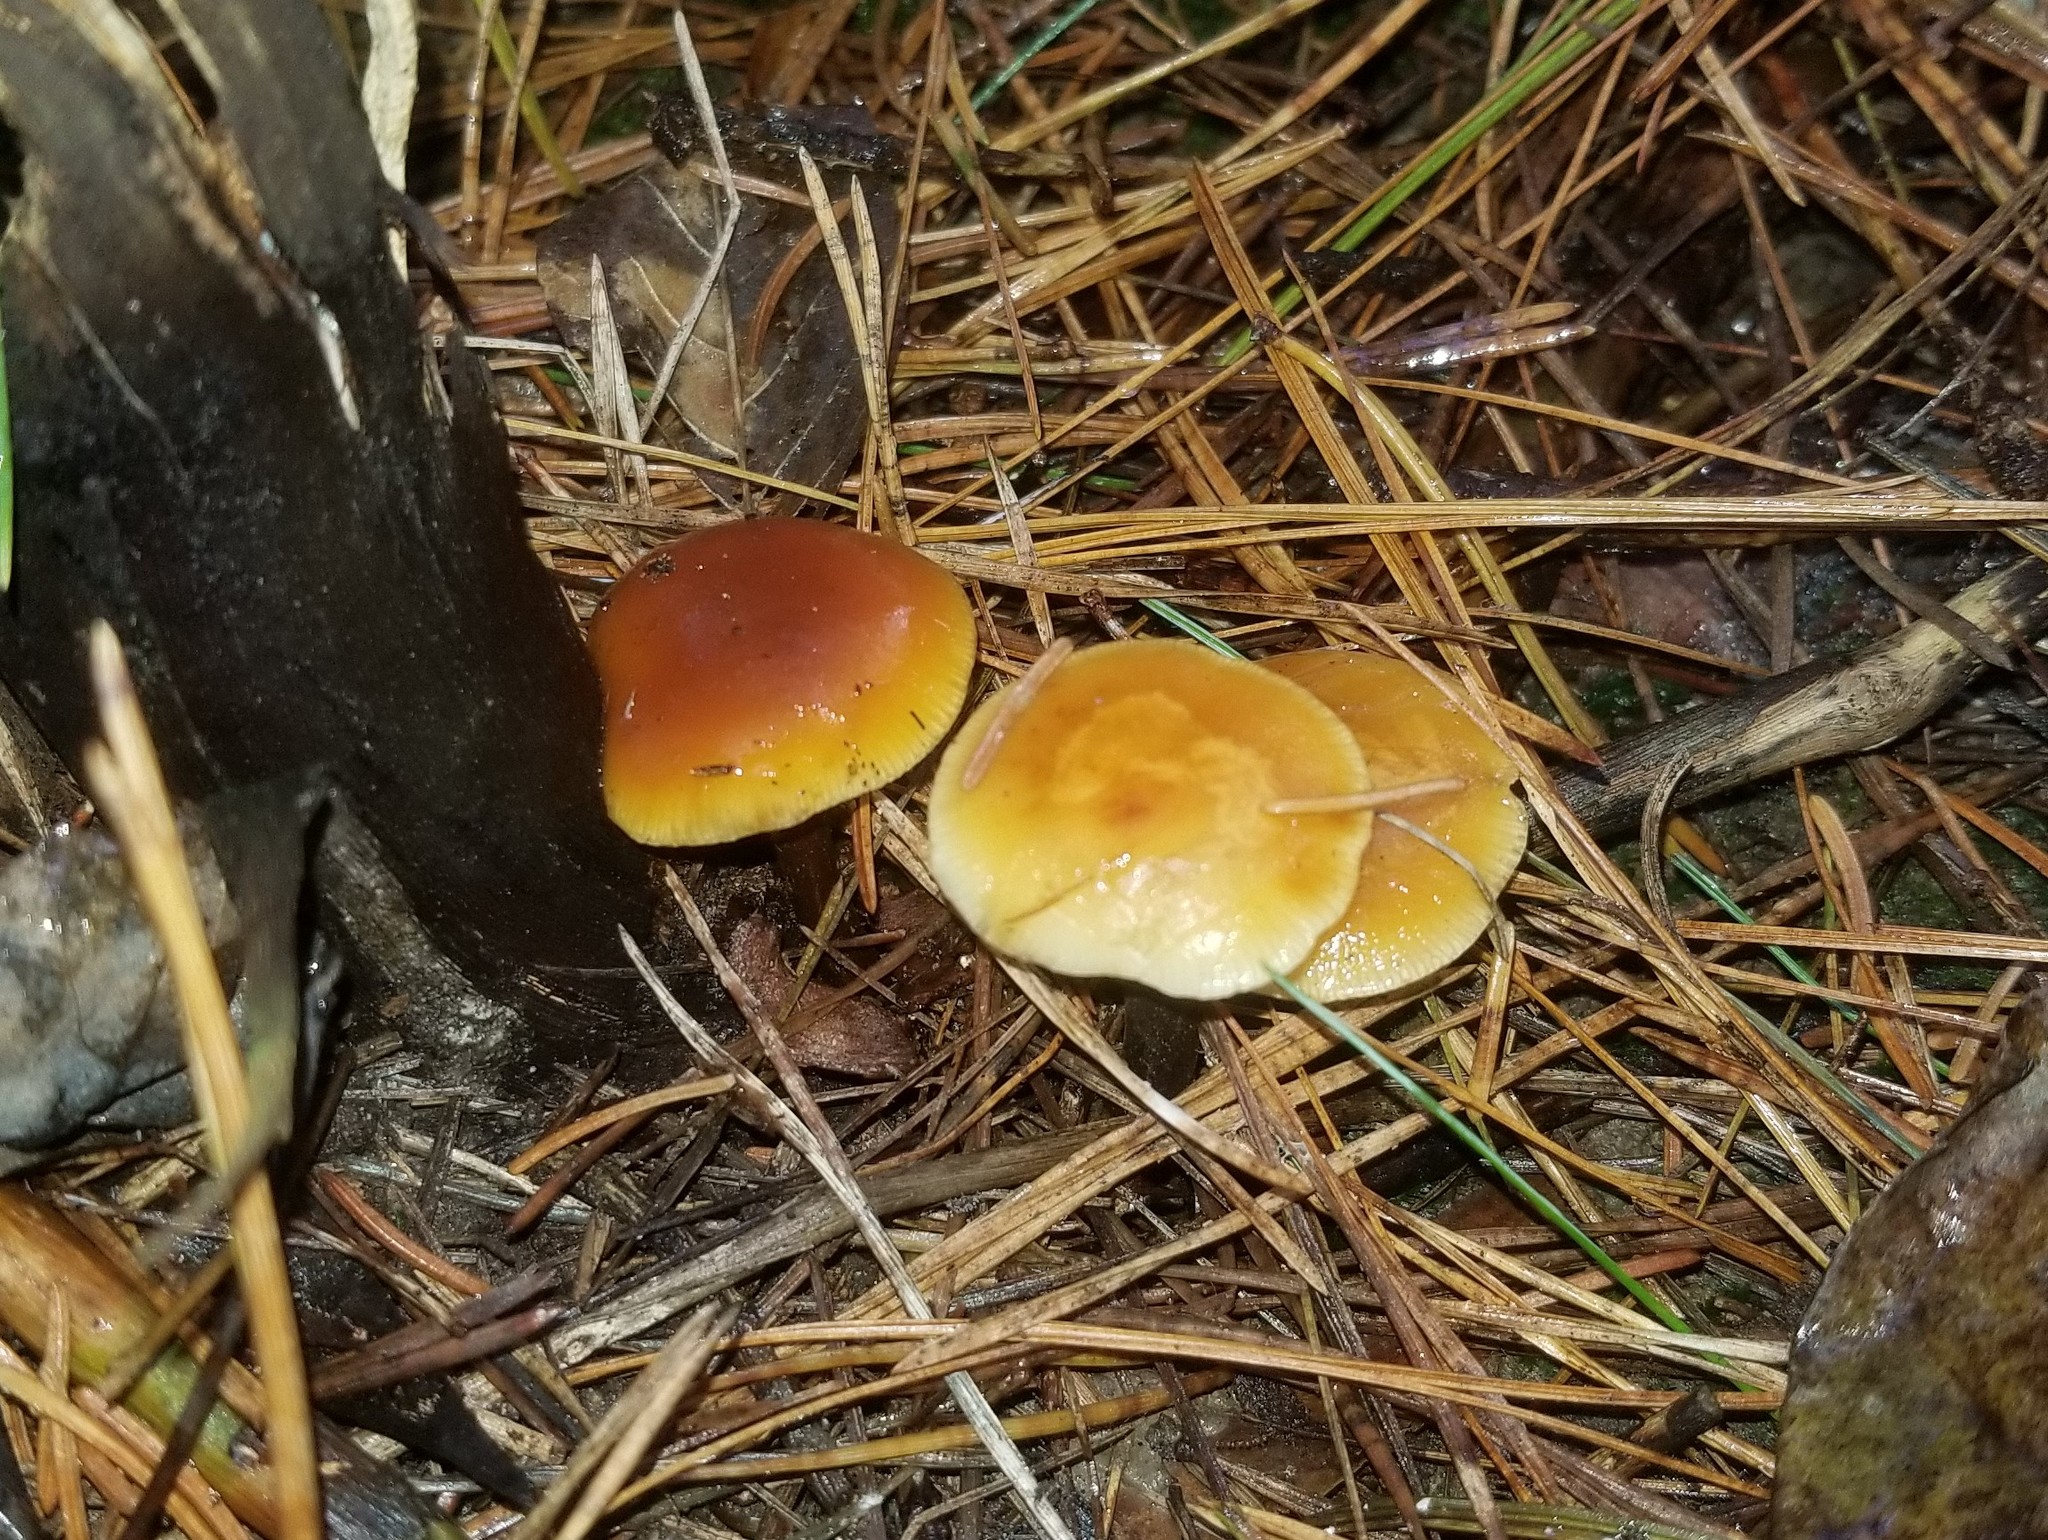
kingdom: Fungi
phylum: Basidiomycota
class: Agaricomycetes
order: Agaricales
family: Physalacriaceae
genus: Flammulina
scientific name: Flammulina velutipes
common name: Velvet shank
